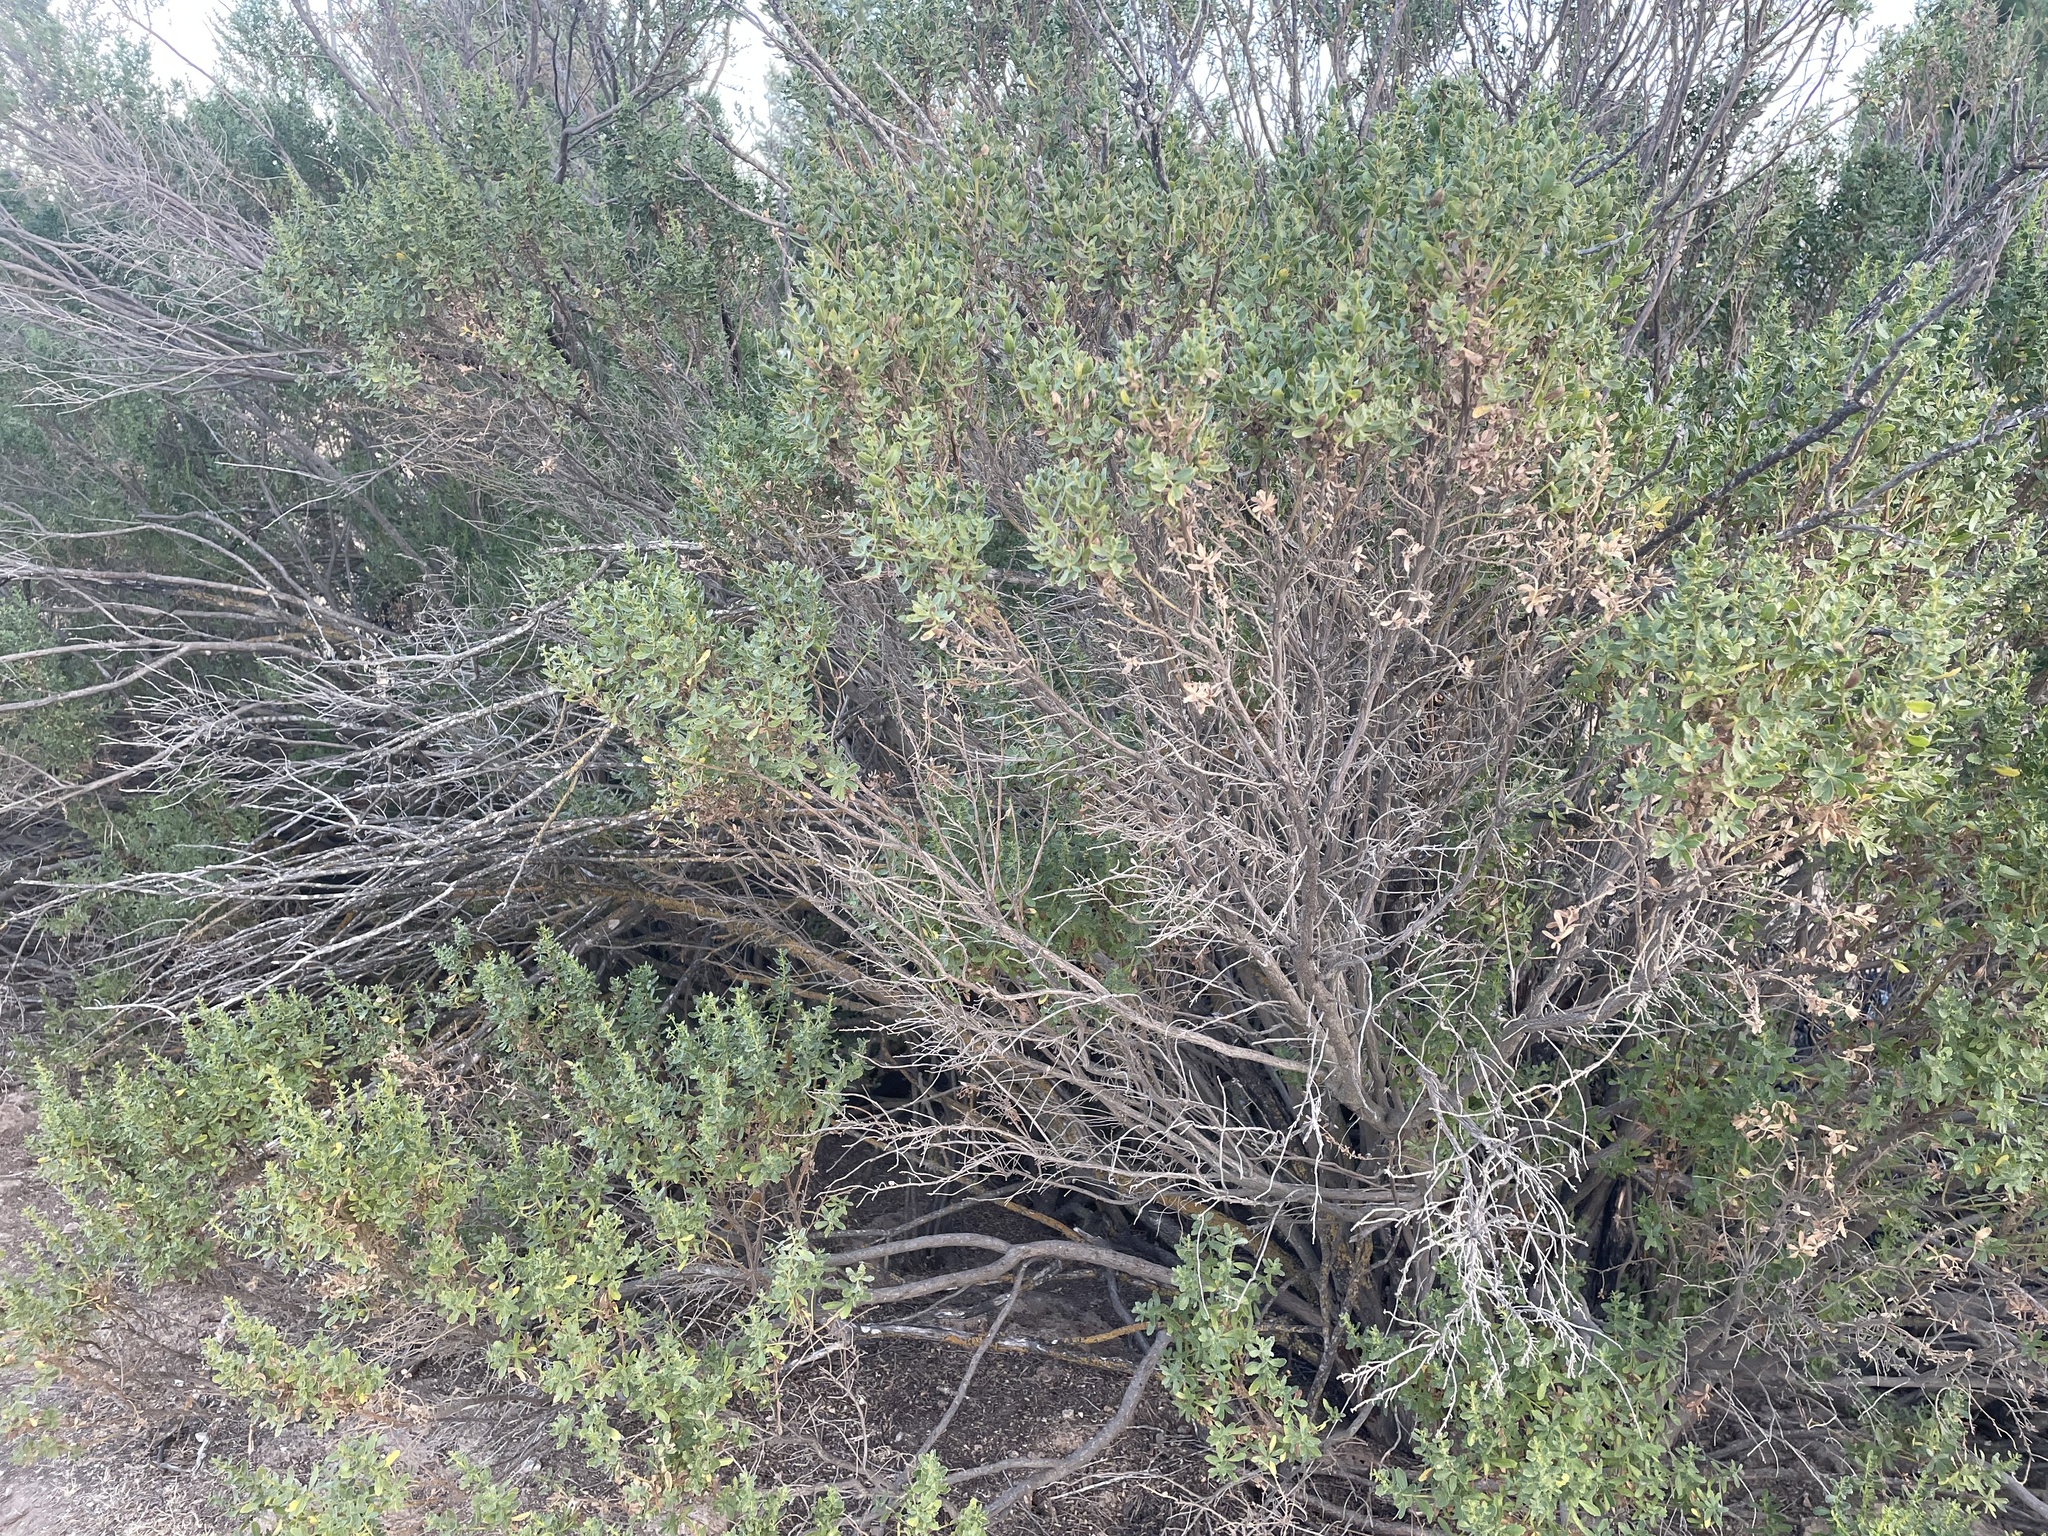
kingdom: Plantae
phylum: Tracheophyta
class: Magnoliopsida
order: Asterales
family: Asteraceae
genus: Baccharis
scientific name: Baccharis pilularis
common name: Coyotebrush
